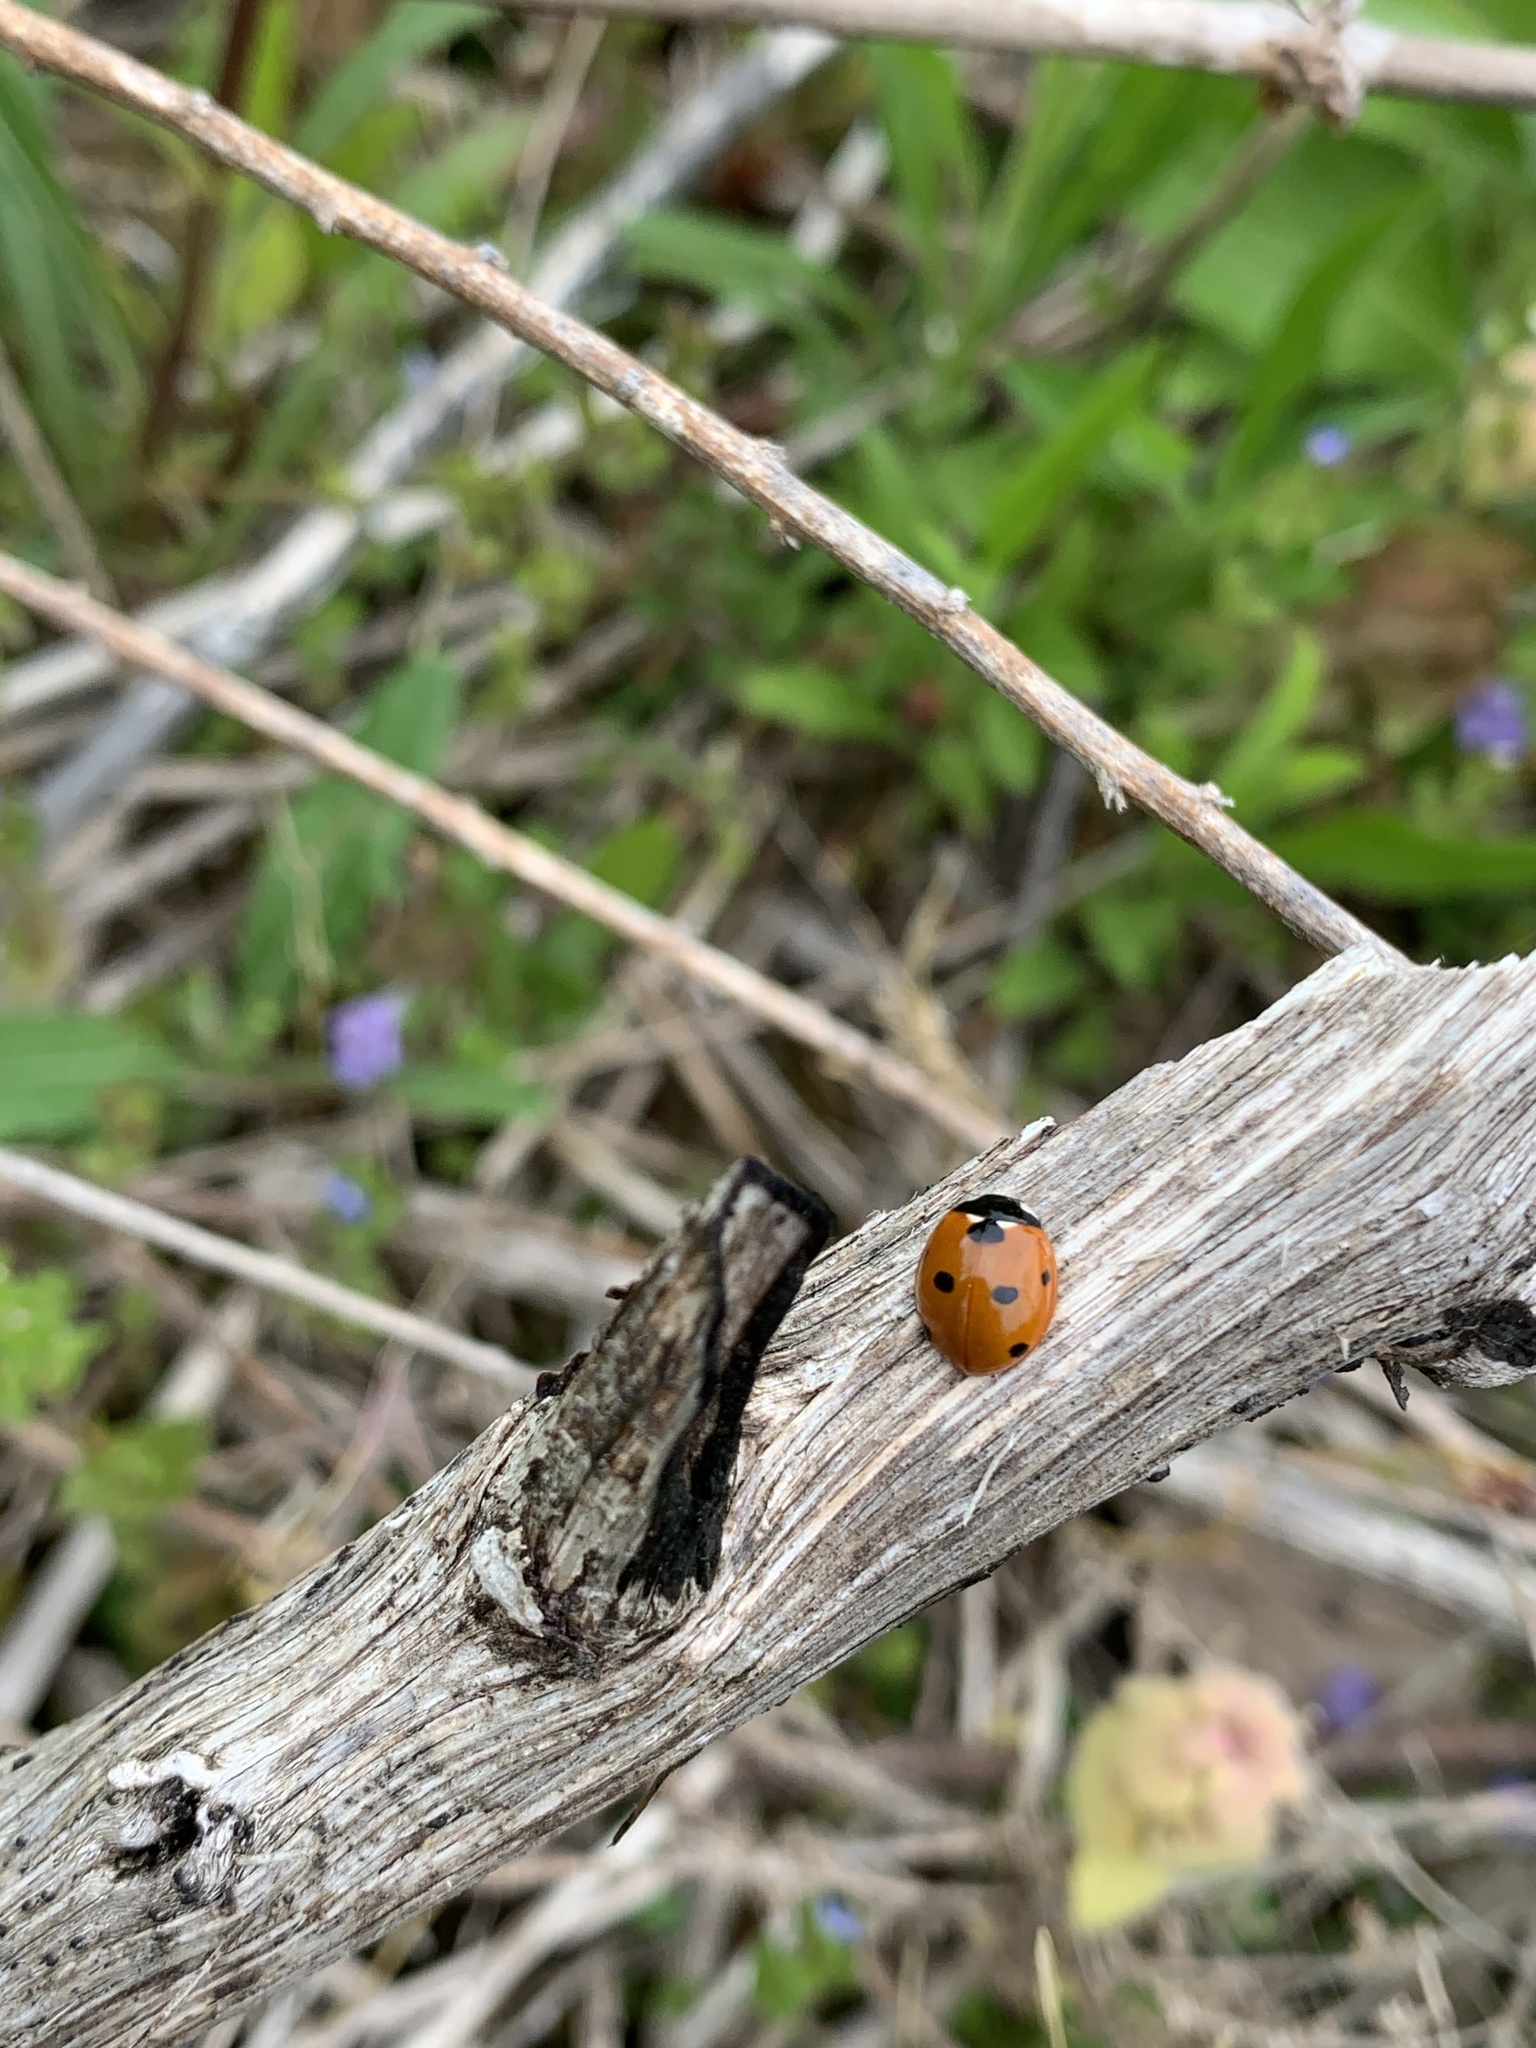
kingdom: Animalia
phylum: Arthropoda
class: Insecta
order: Coleoptera
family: Coccinellidae
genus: Coccinella
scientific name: Coccinella septempunctata
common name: Sevenspotted lady beetle
